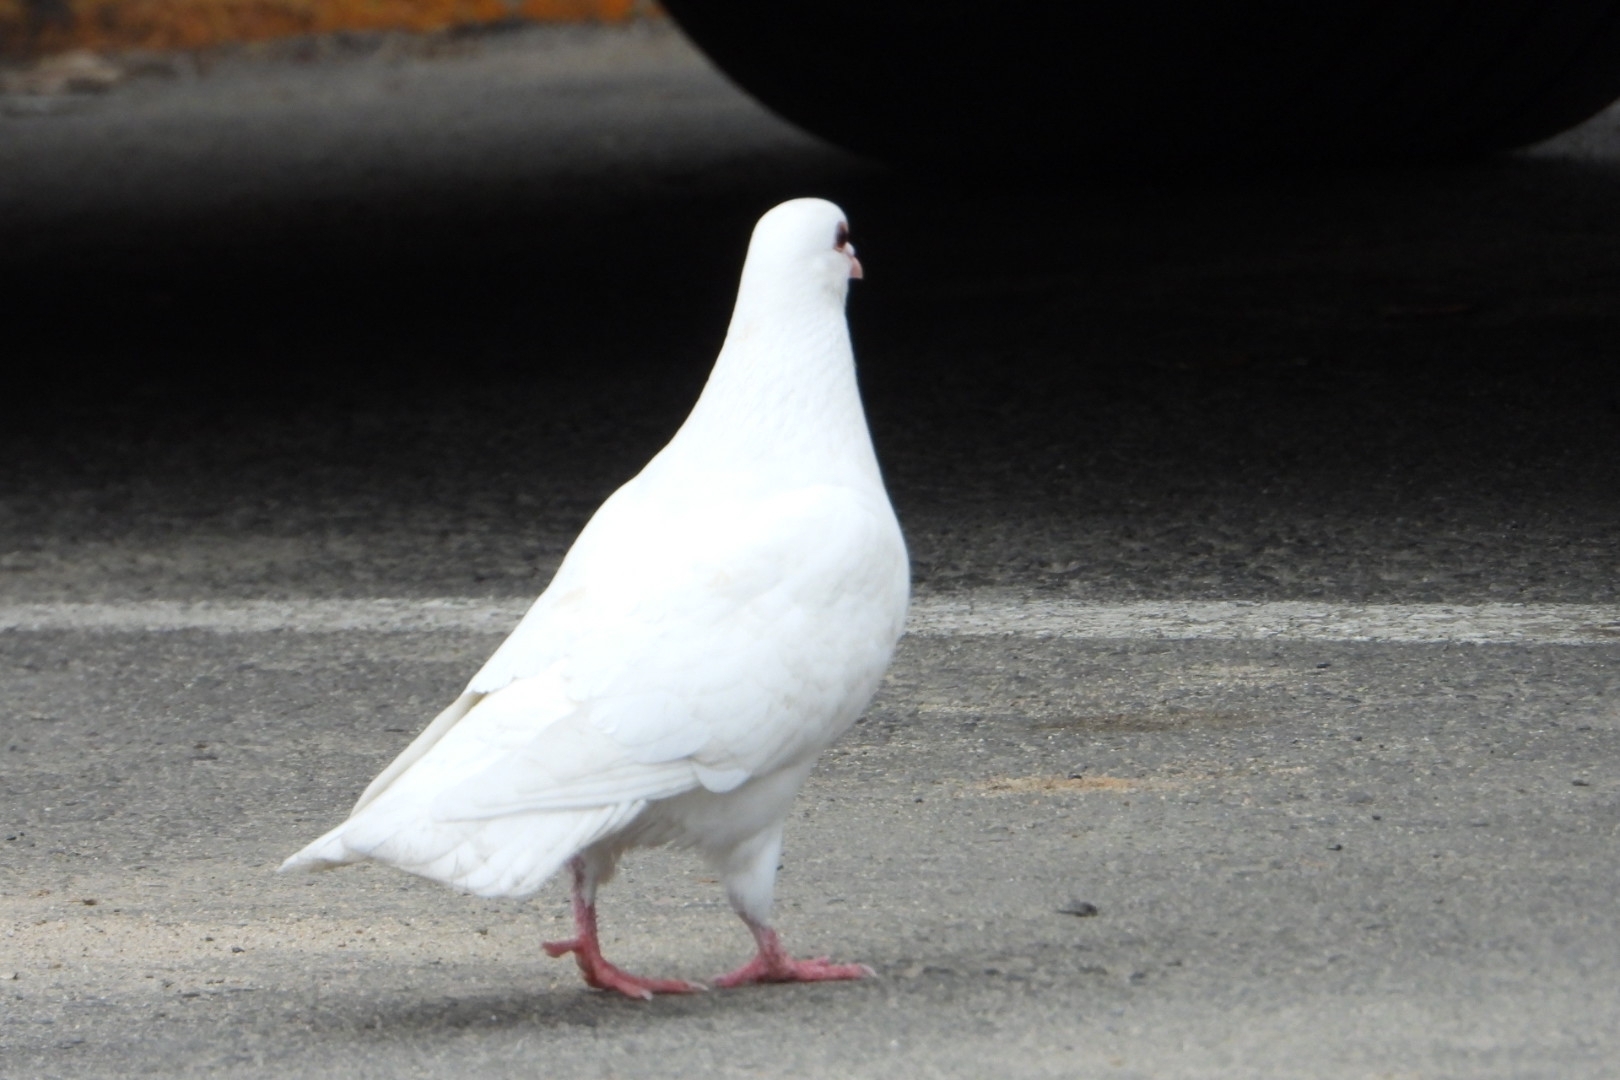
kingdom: Animalia
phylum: Chordata
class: Aves
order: Columbiformes
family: Columbidae
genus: Columba
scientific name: Columba livia
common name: Rock pigeon
